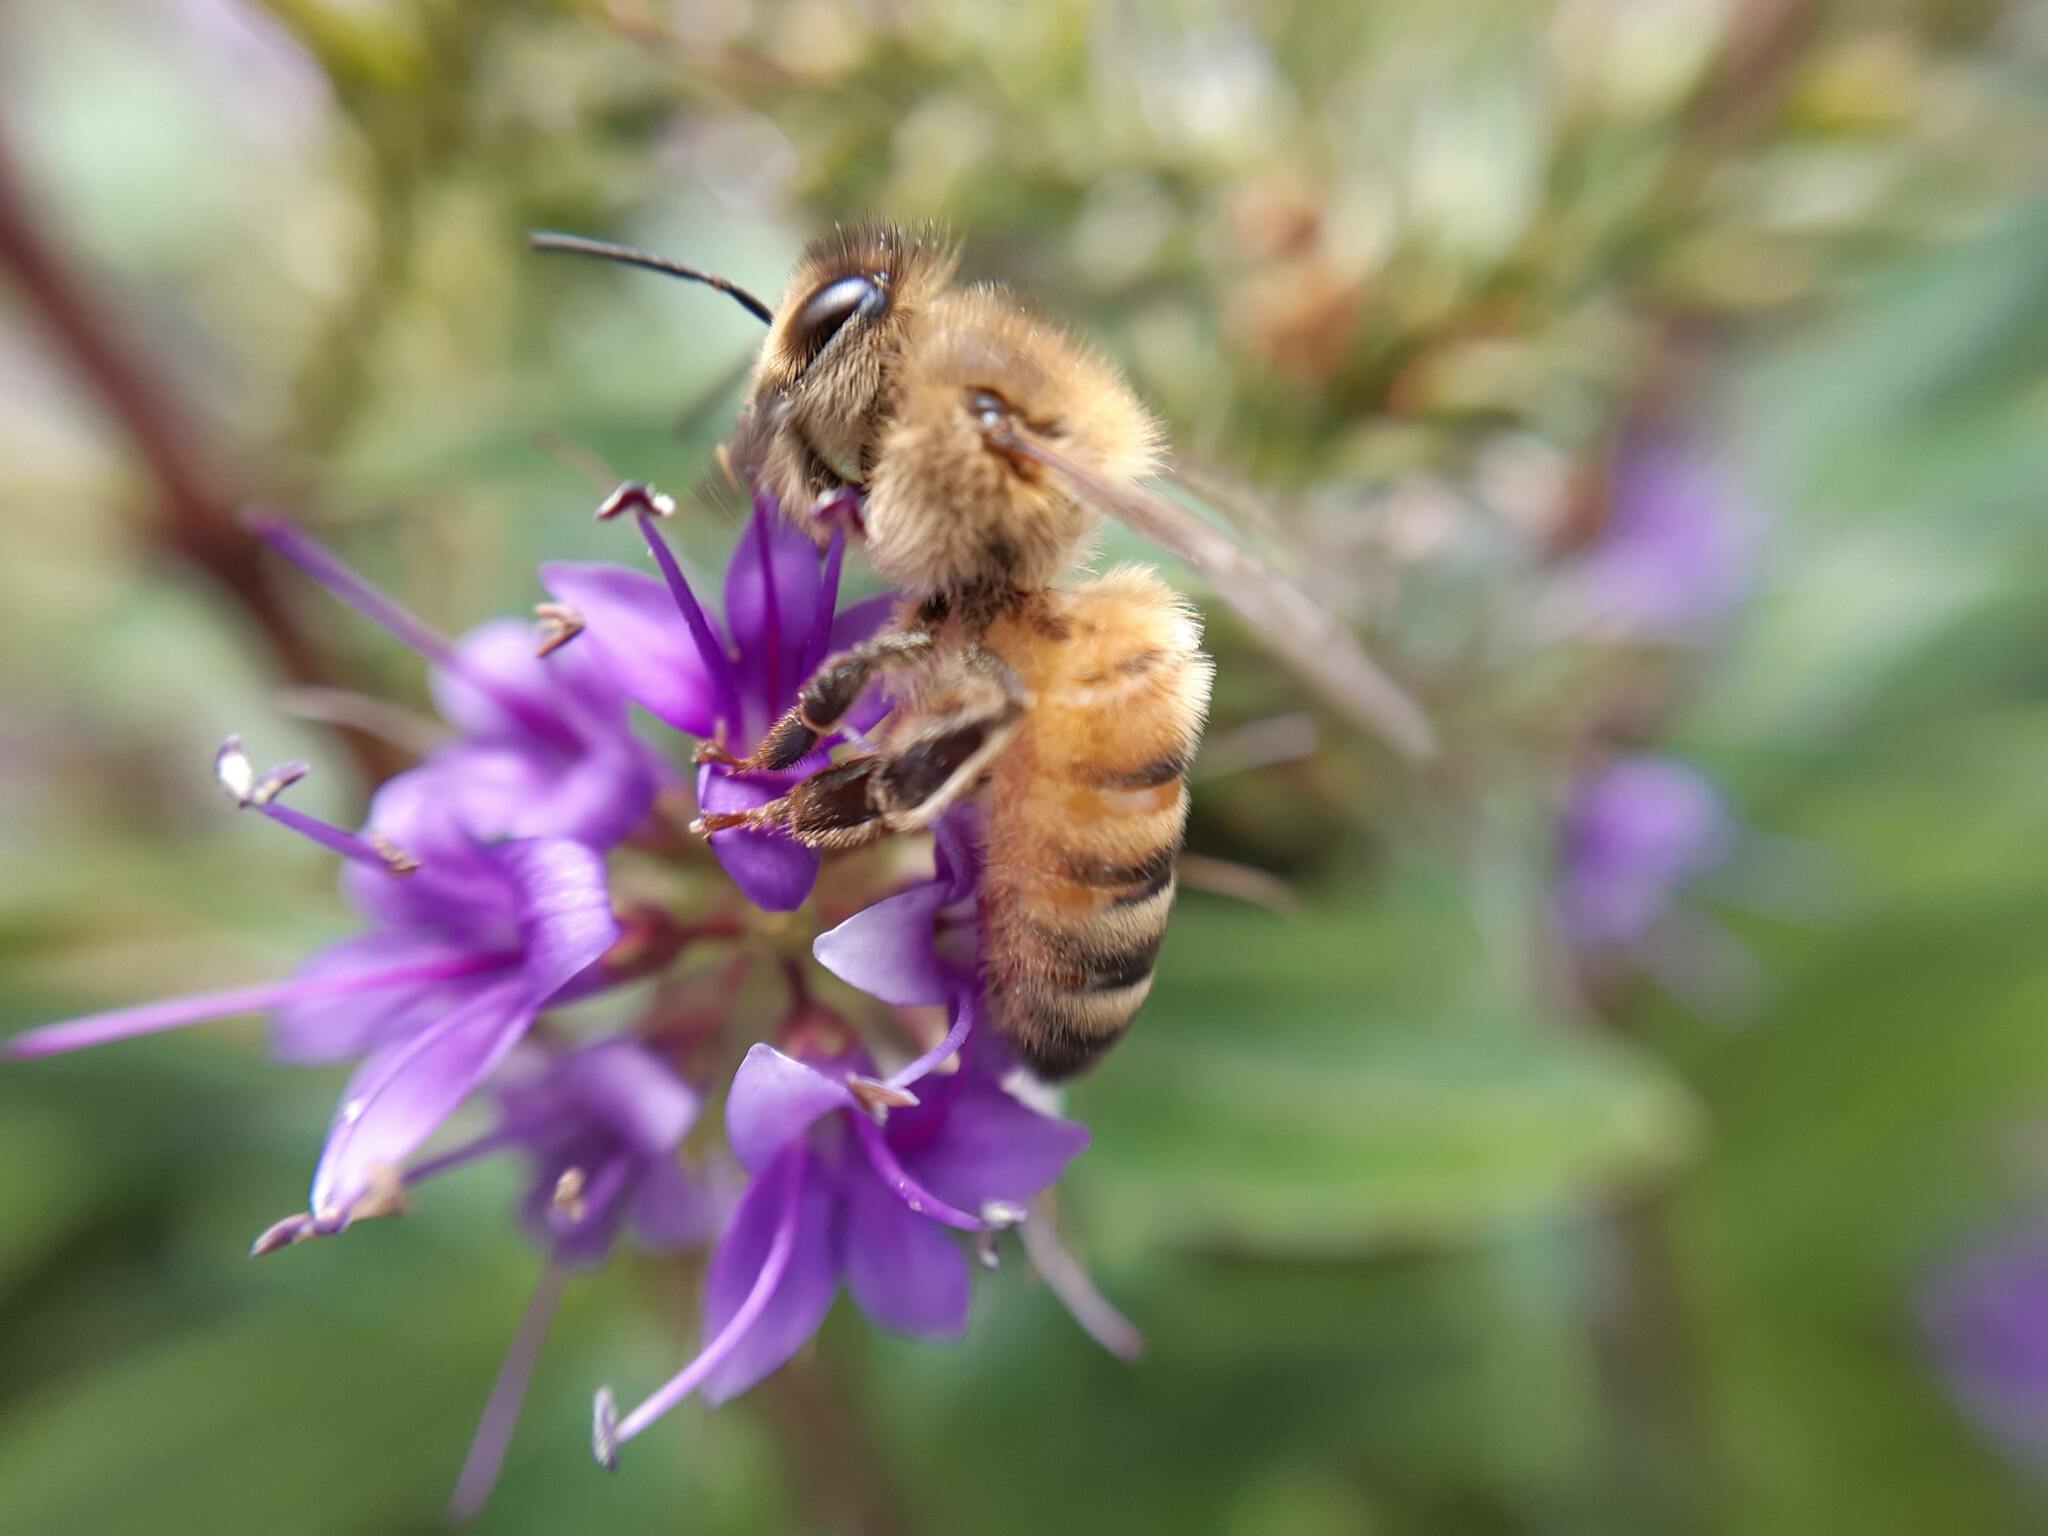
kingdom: Animalia
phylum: Arthropoda
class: Insecta
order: Hymenoptera
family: Apidae
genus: Apis
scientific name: Apis mellifera
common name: Honey bee
